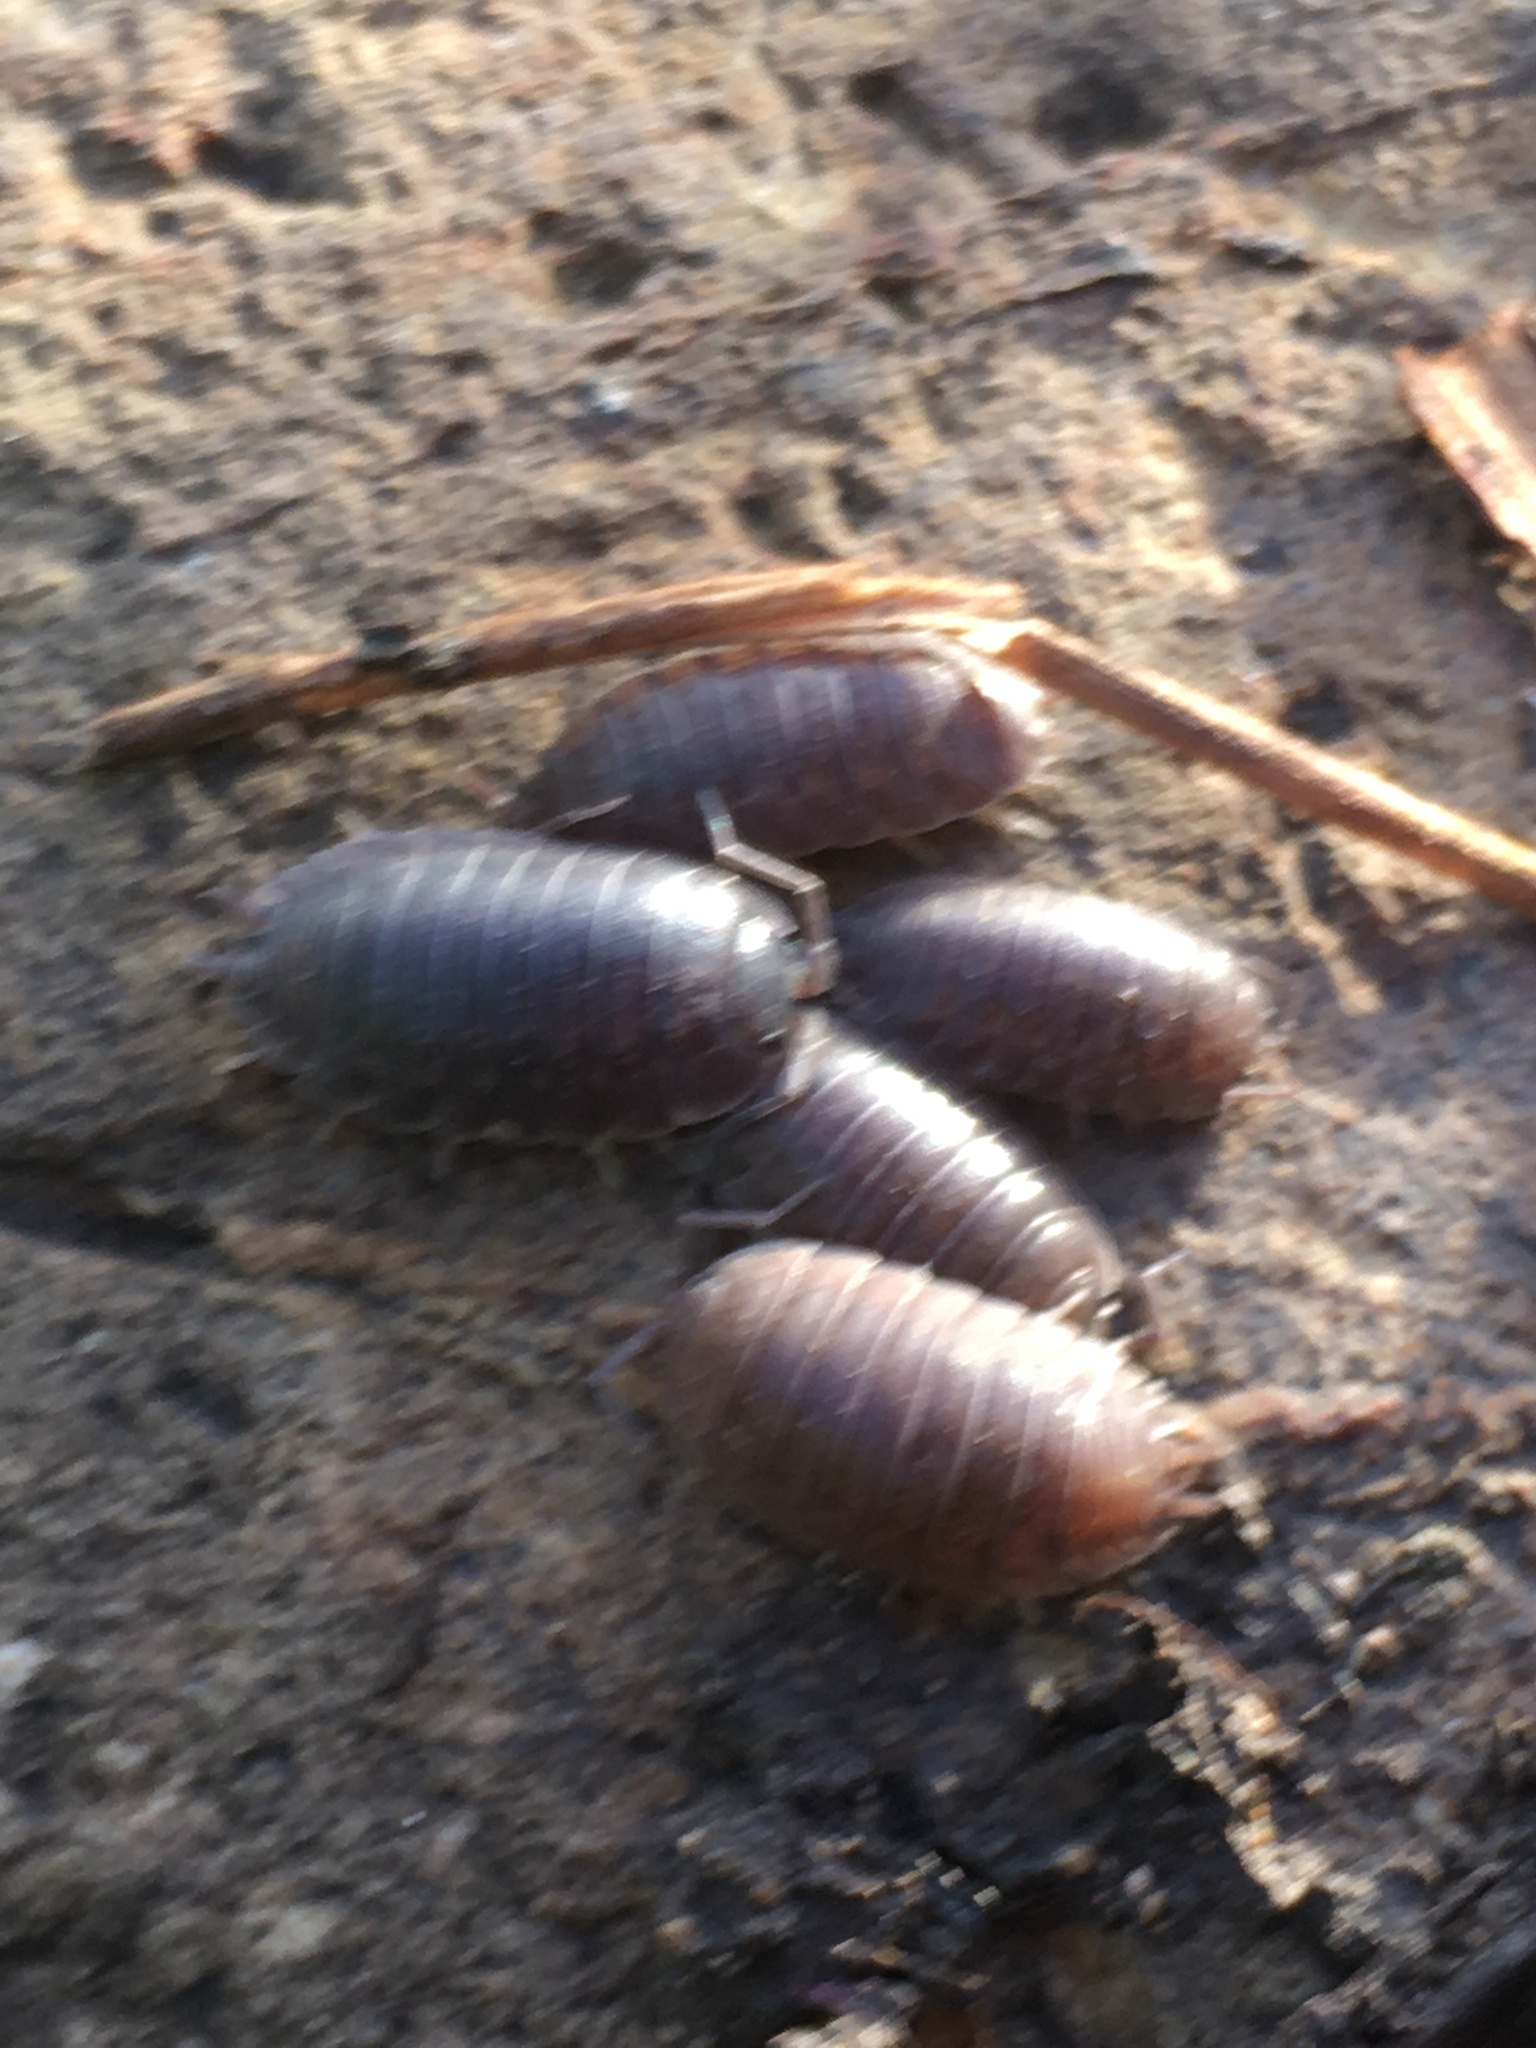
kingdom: Animalia
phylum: Arthropoda
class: Malacostraca
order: Isopoda
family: Porcellionidae
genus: Porcellio
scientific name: Porcellio laevis
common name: Swift woodlouse
